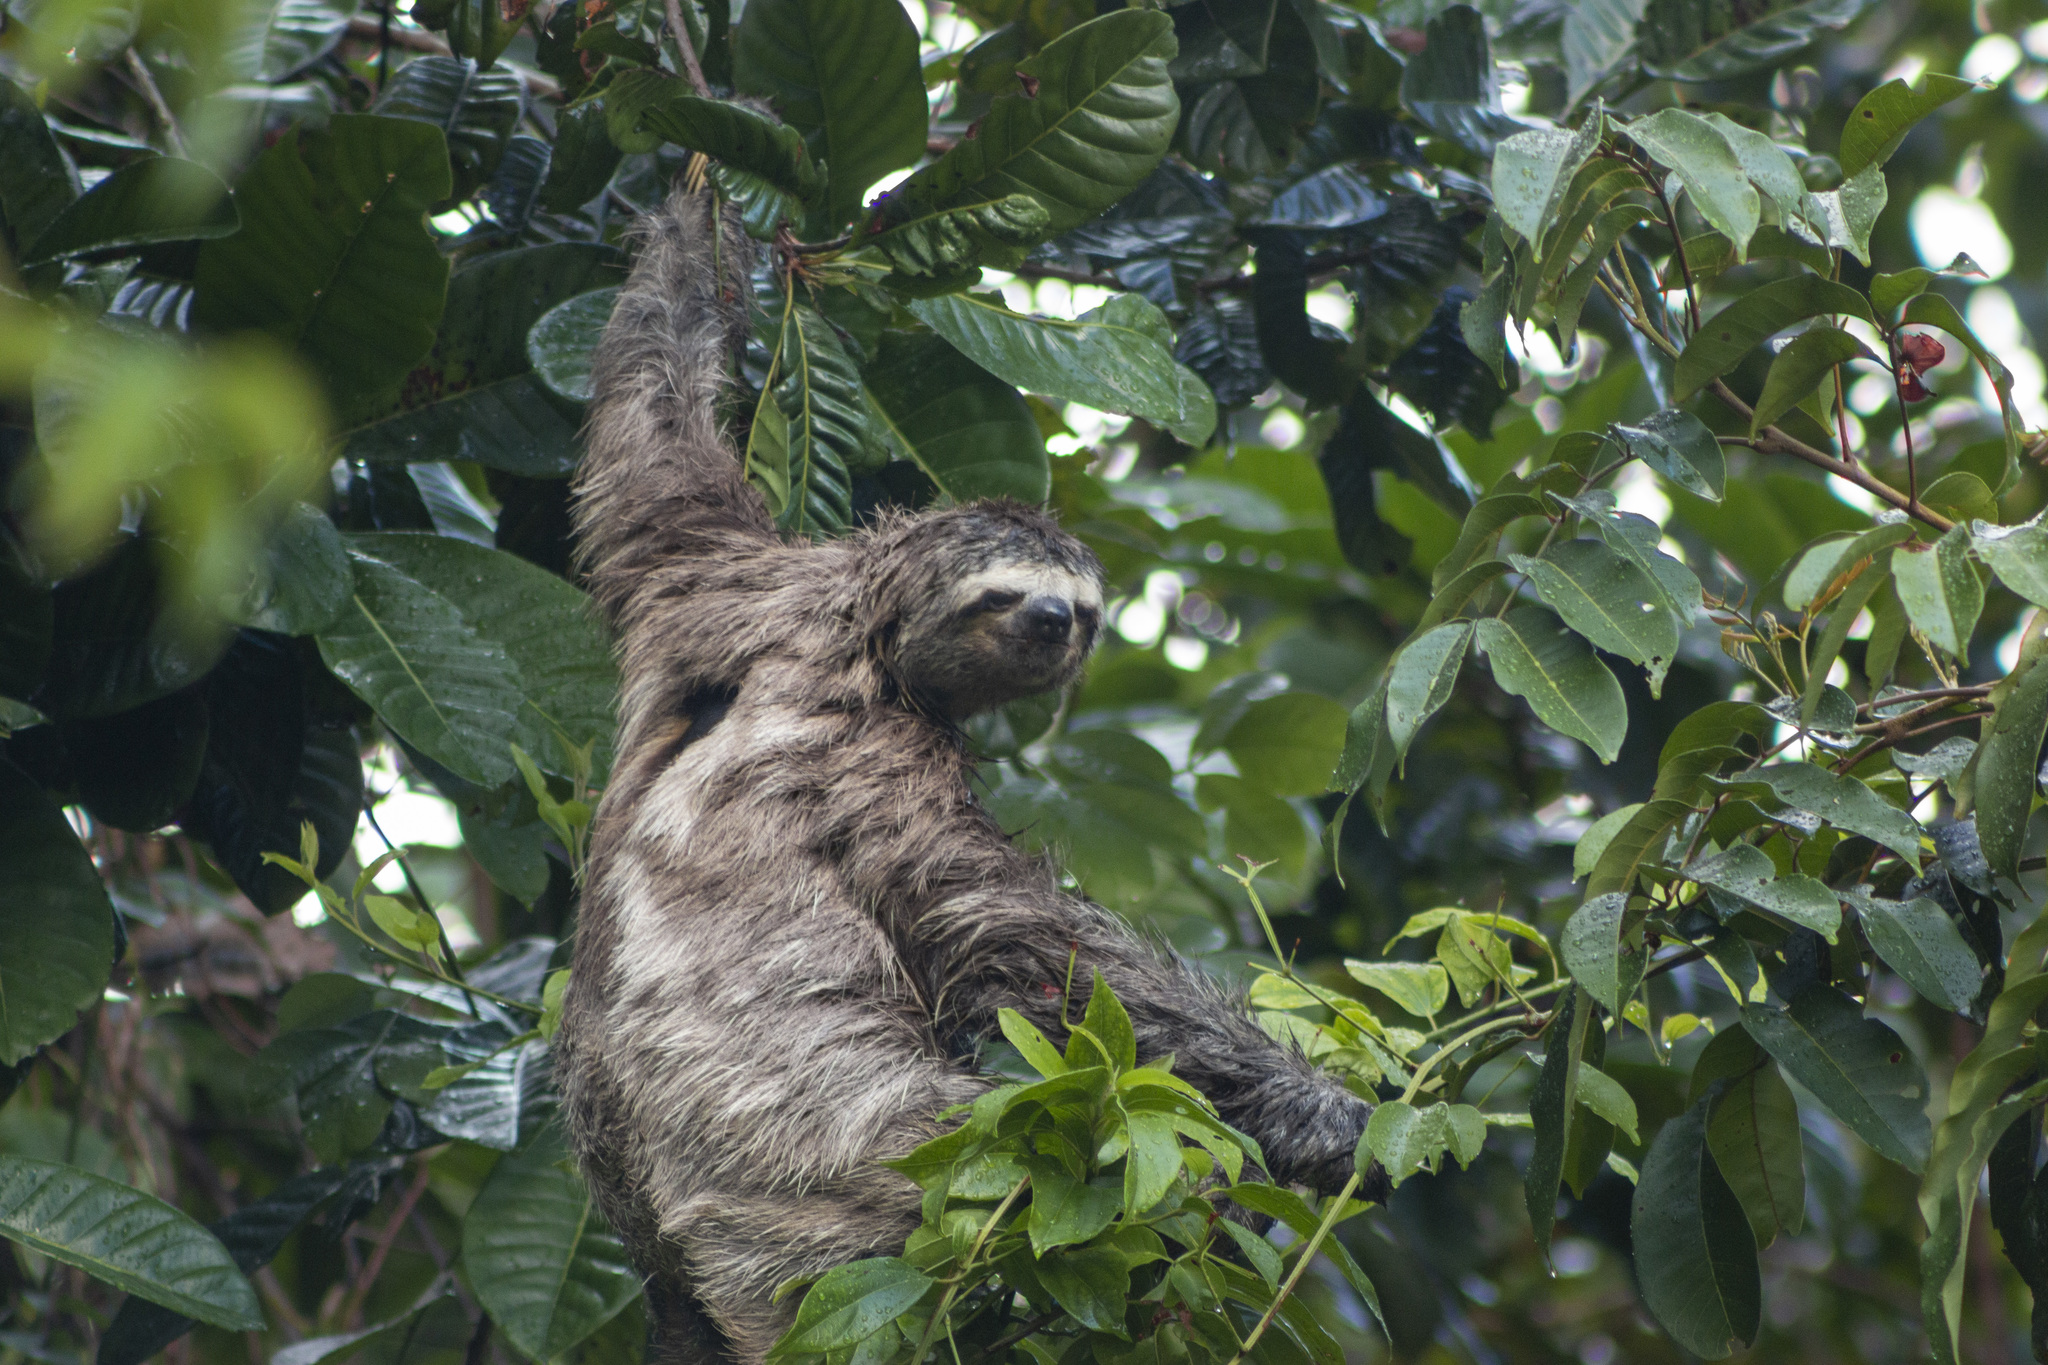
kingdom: Animalia
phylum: Chordata
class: Mammalia
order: Pilosa
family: Bradypodidae
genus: Bradypus
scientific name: Bradypus variegatus
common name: Brown-throated three-toed sloth
